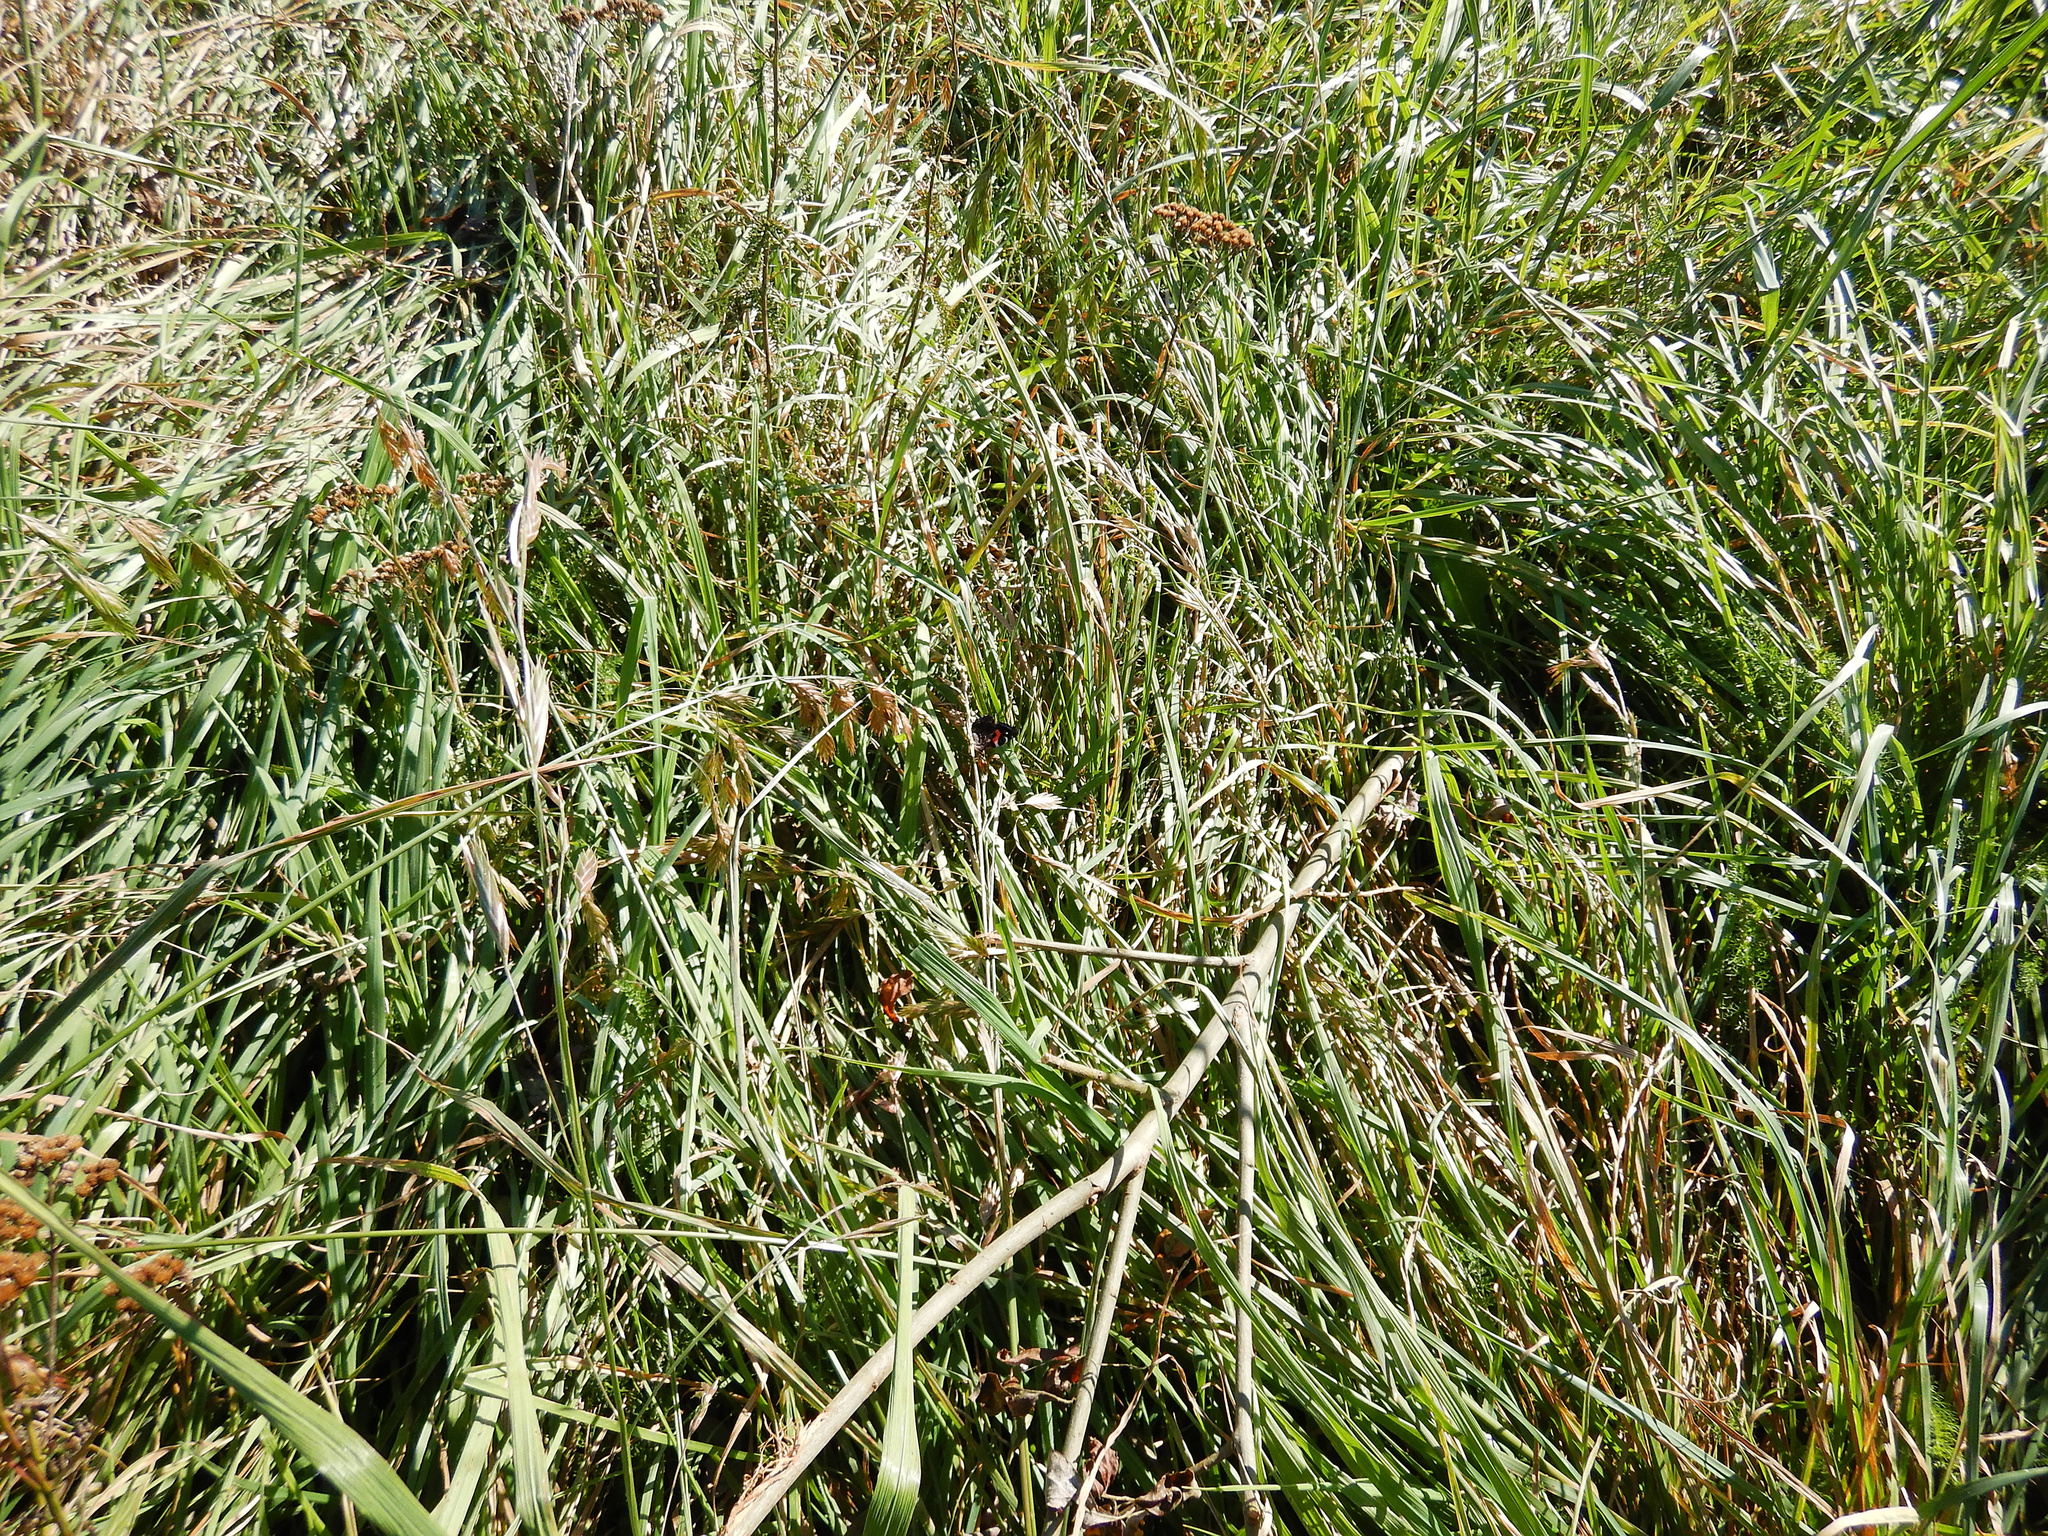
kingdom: Animalia
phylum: Arthropoda
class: Insecta
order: Lepidoptera
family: Nymphalidae
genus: Vanessa
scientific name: Vanessa gonerilla
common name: New zealand red admiral
